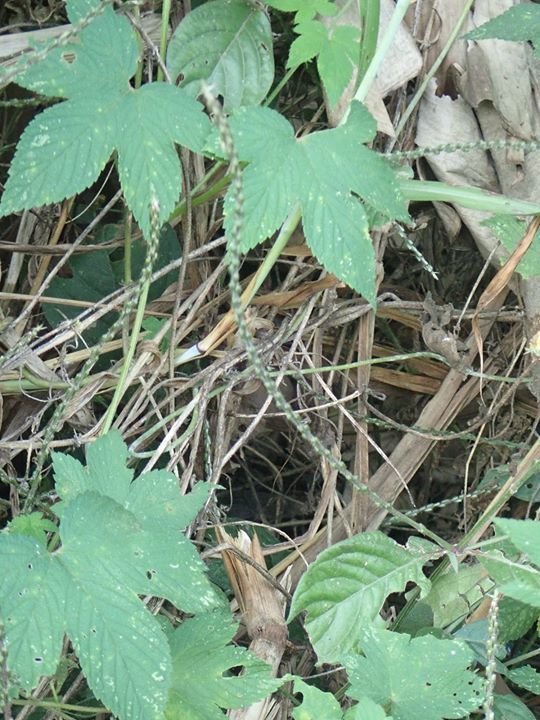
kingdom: Plantae
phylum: Tracheophyta
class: Magnoliopsida
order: Rosales
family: Cannabaceae
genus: Humulus
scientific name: Humulus scandens
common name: Japanese hop
